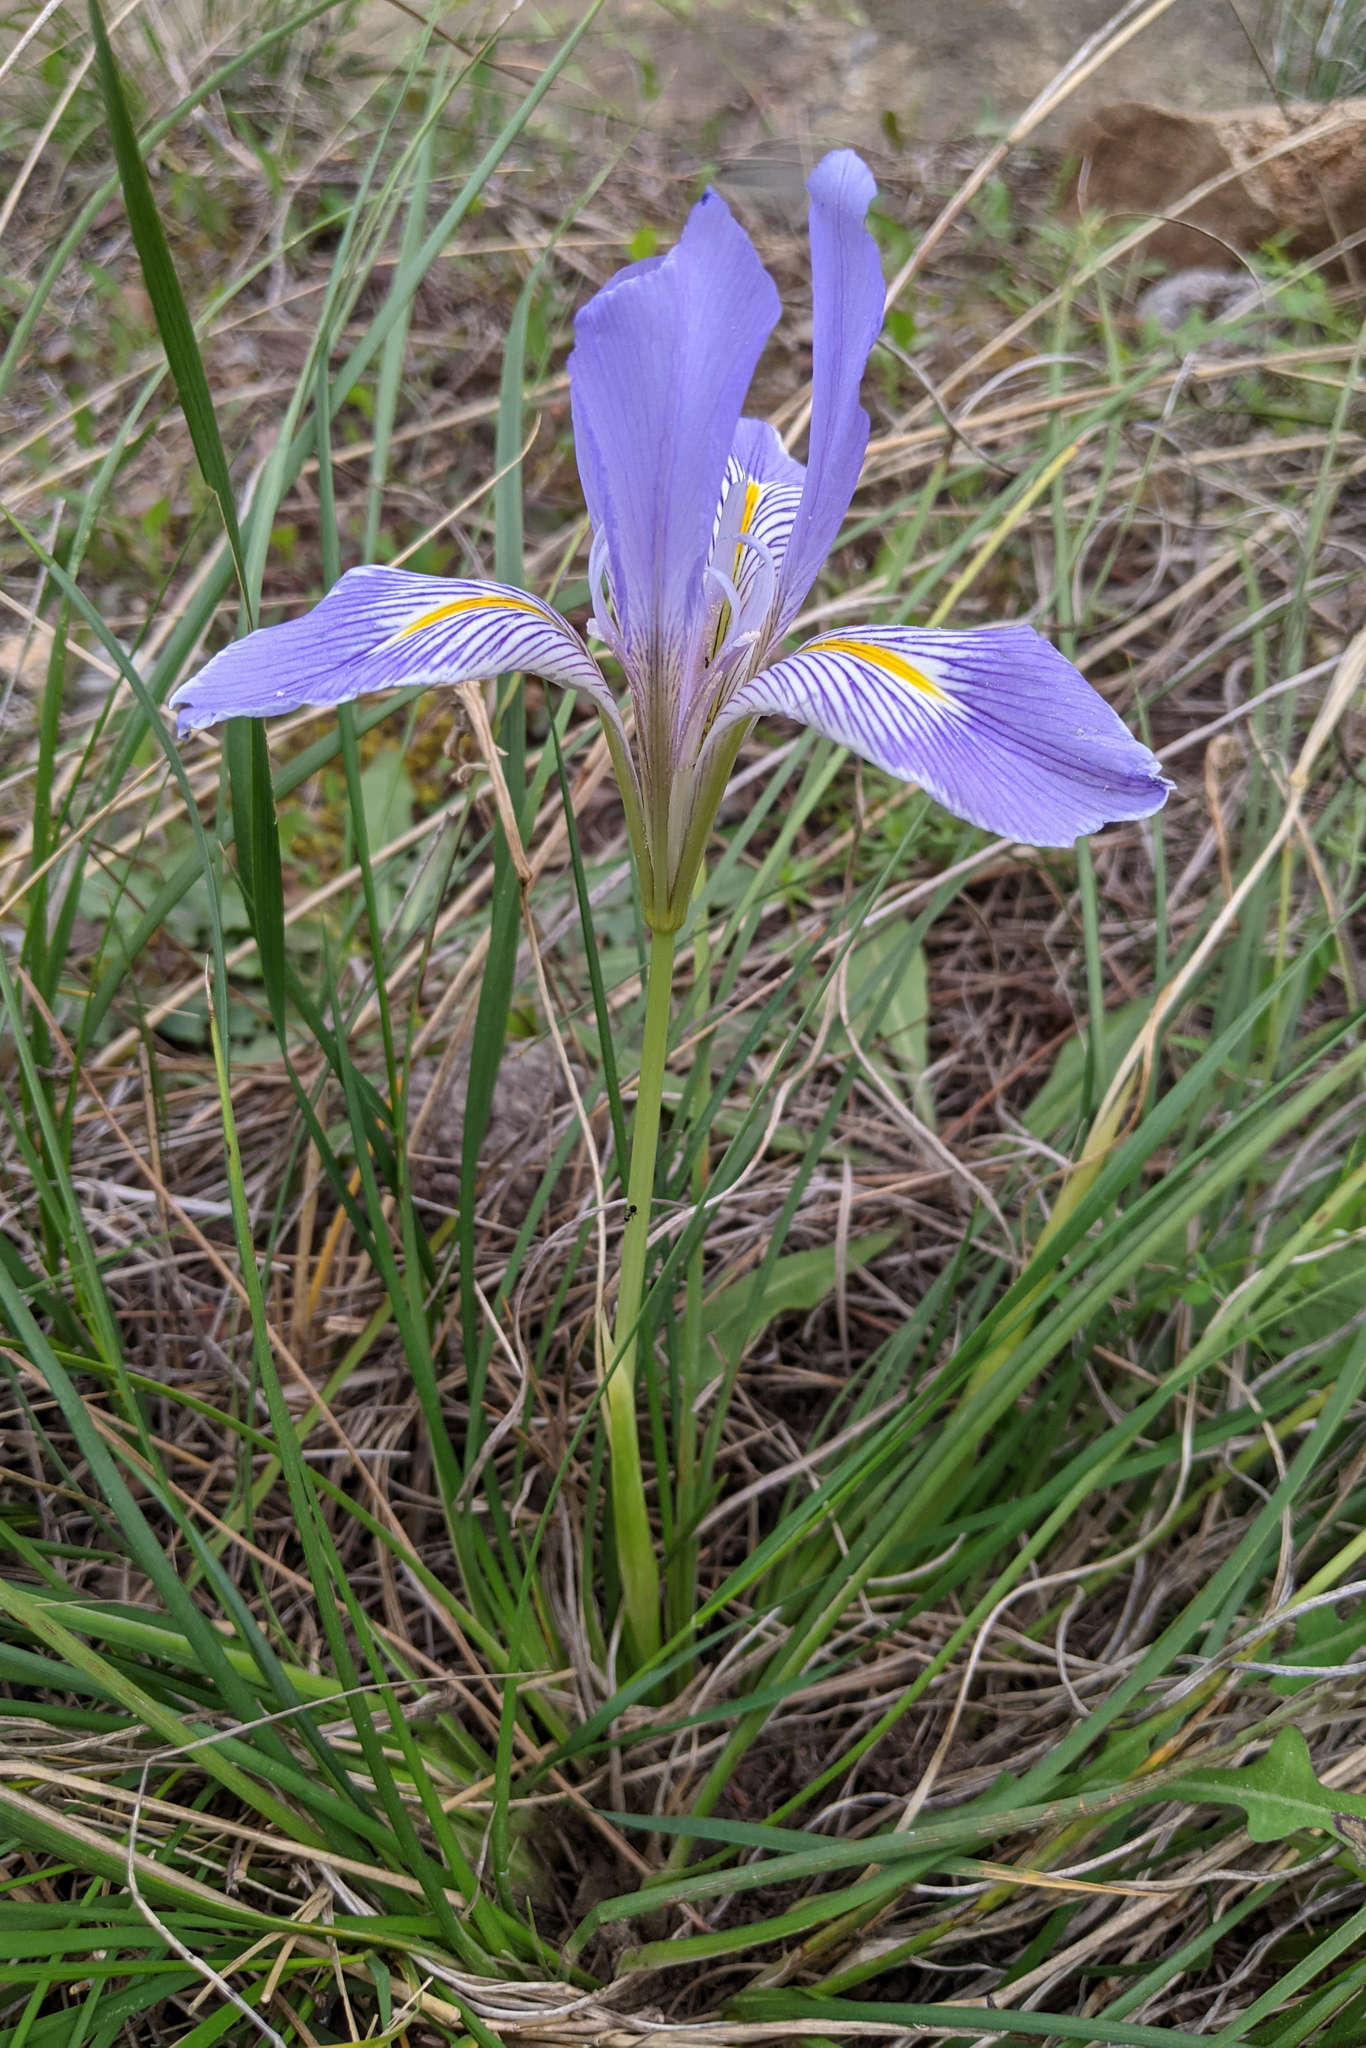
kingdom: Plantae
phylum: Tracheophyta
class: Liliopsida
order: Asparagales
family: Iridaceae
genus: Iris
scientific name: Iris unguicularis
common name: Algerian iris
